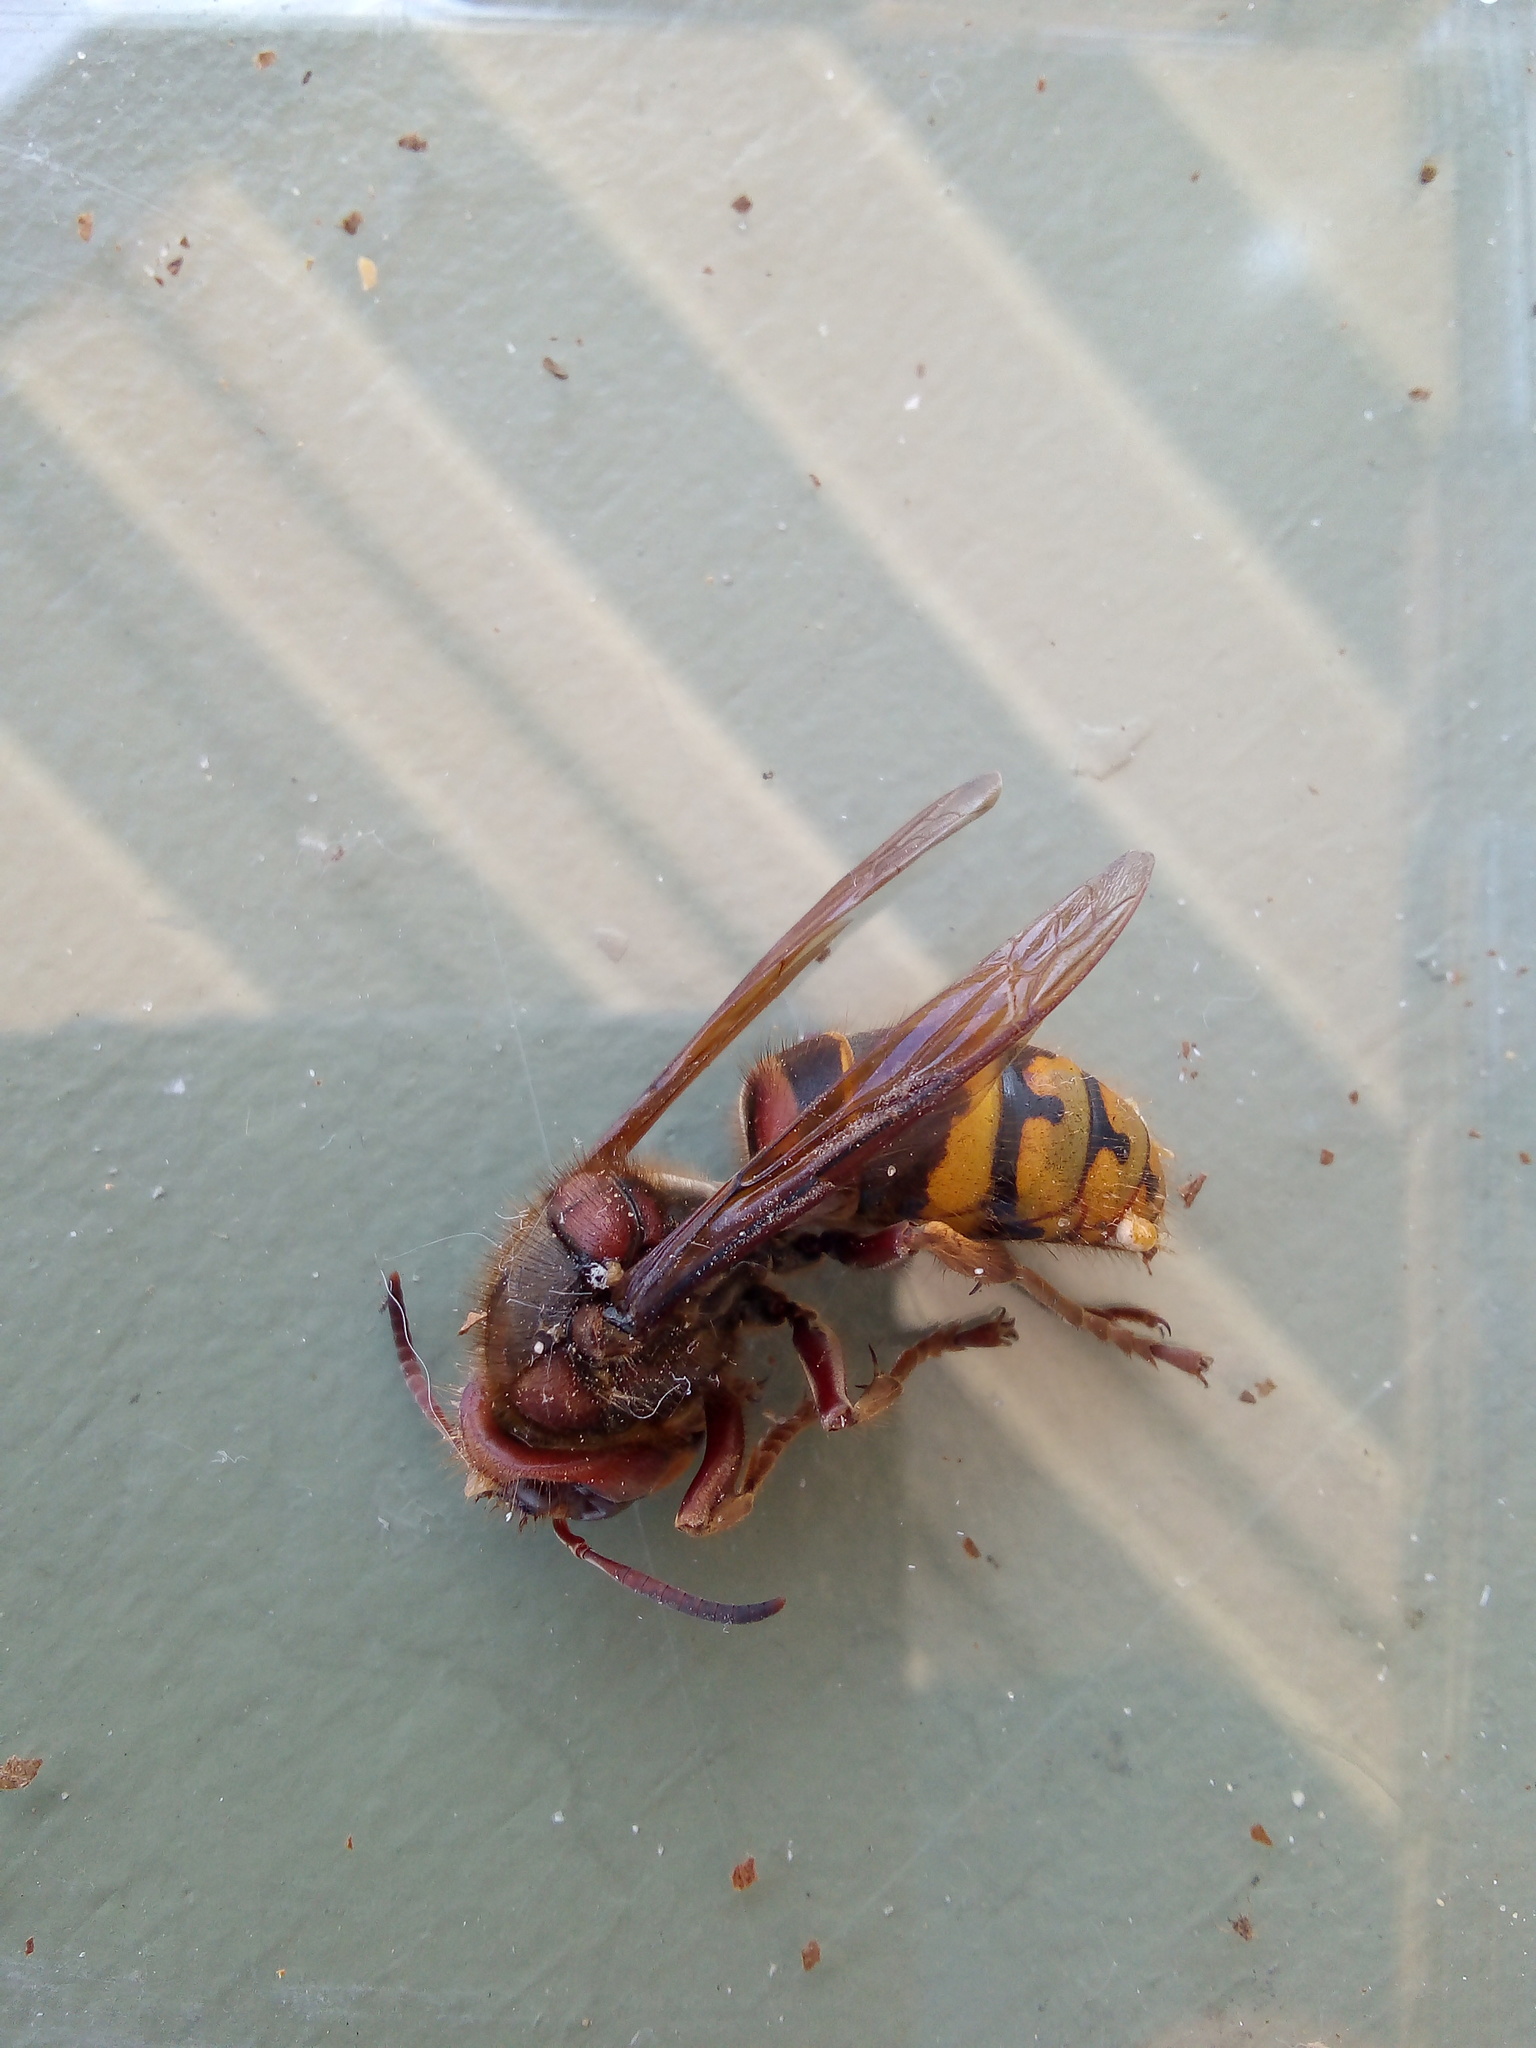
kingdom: Animalia
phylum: Arthropoda
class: Insecta
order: Hymenoptera
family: Vespidae
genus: Vespa
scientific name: Vespa crabro
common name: Hornet
